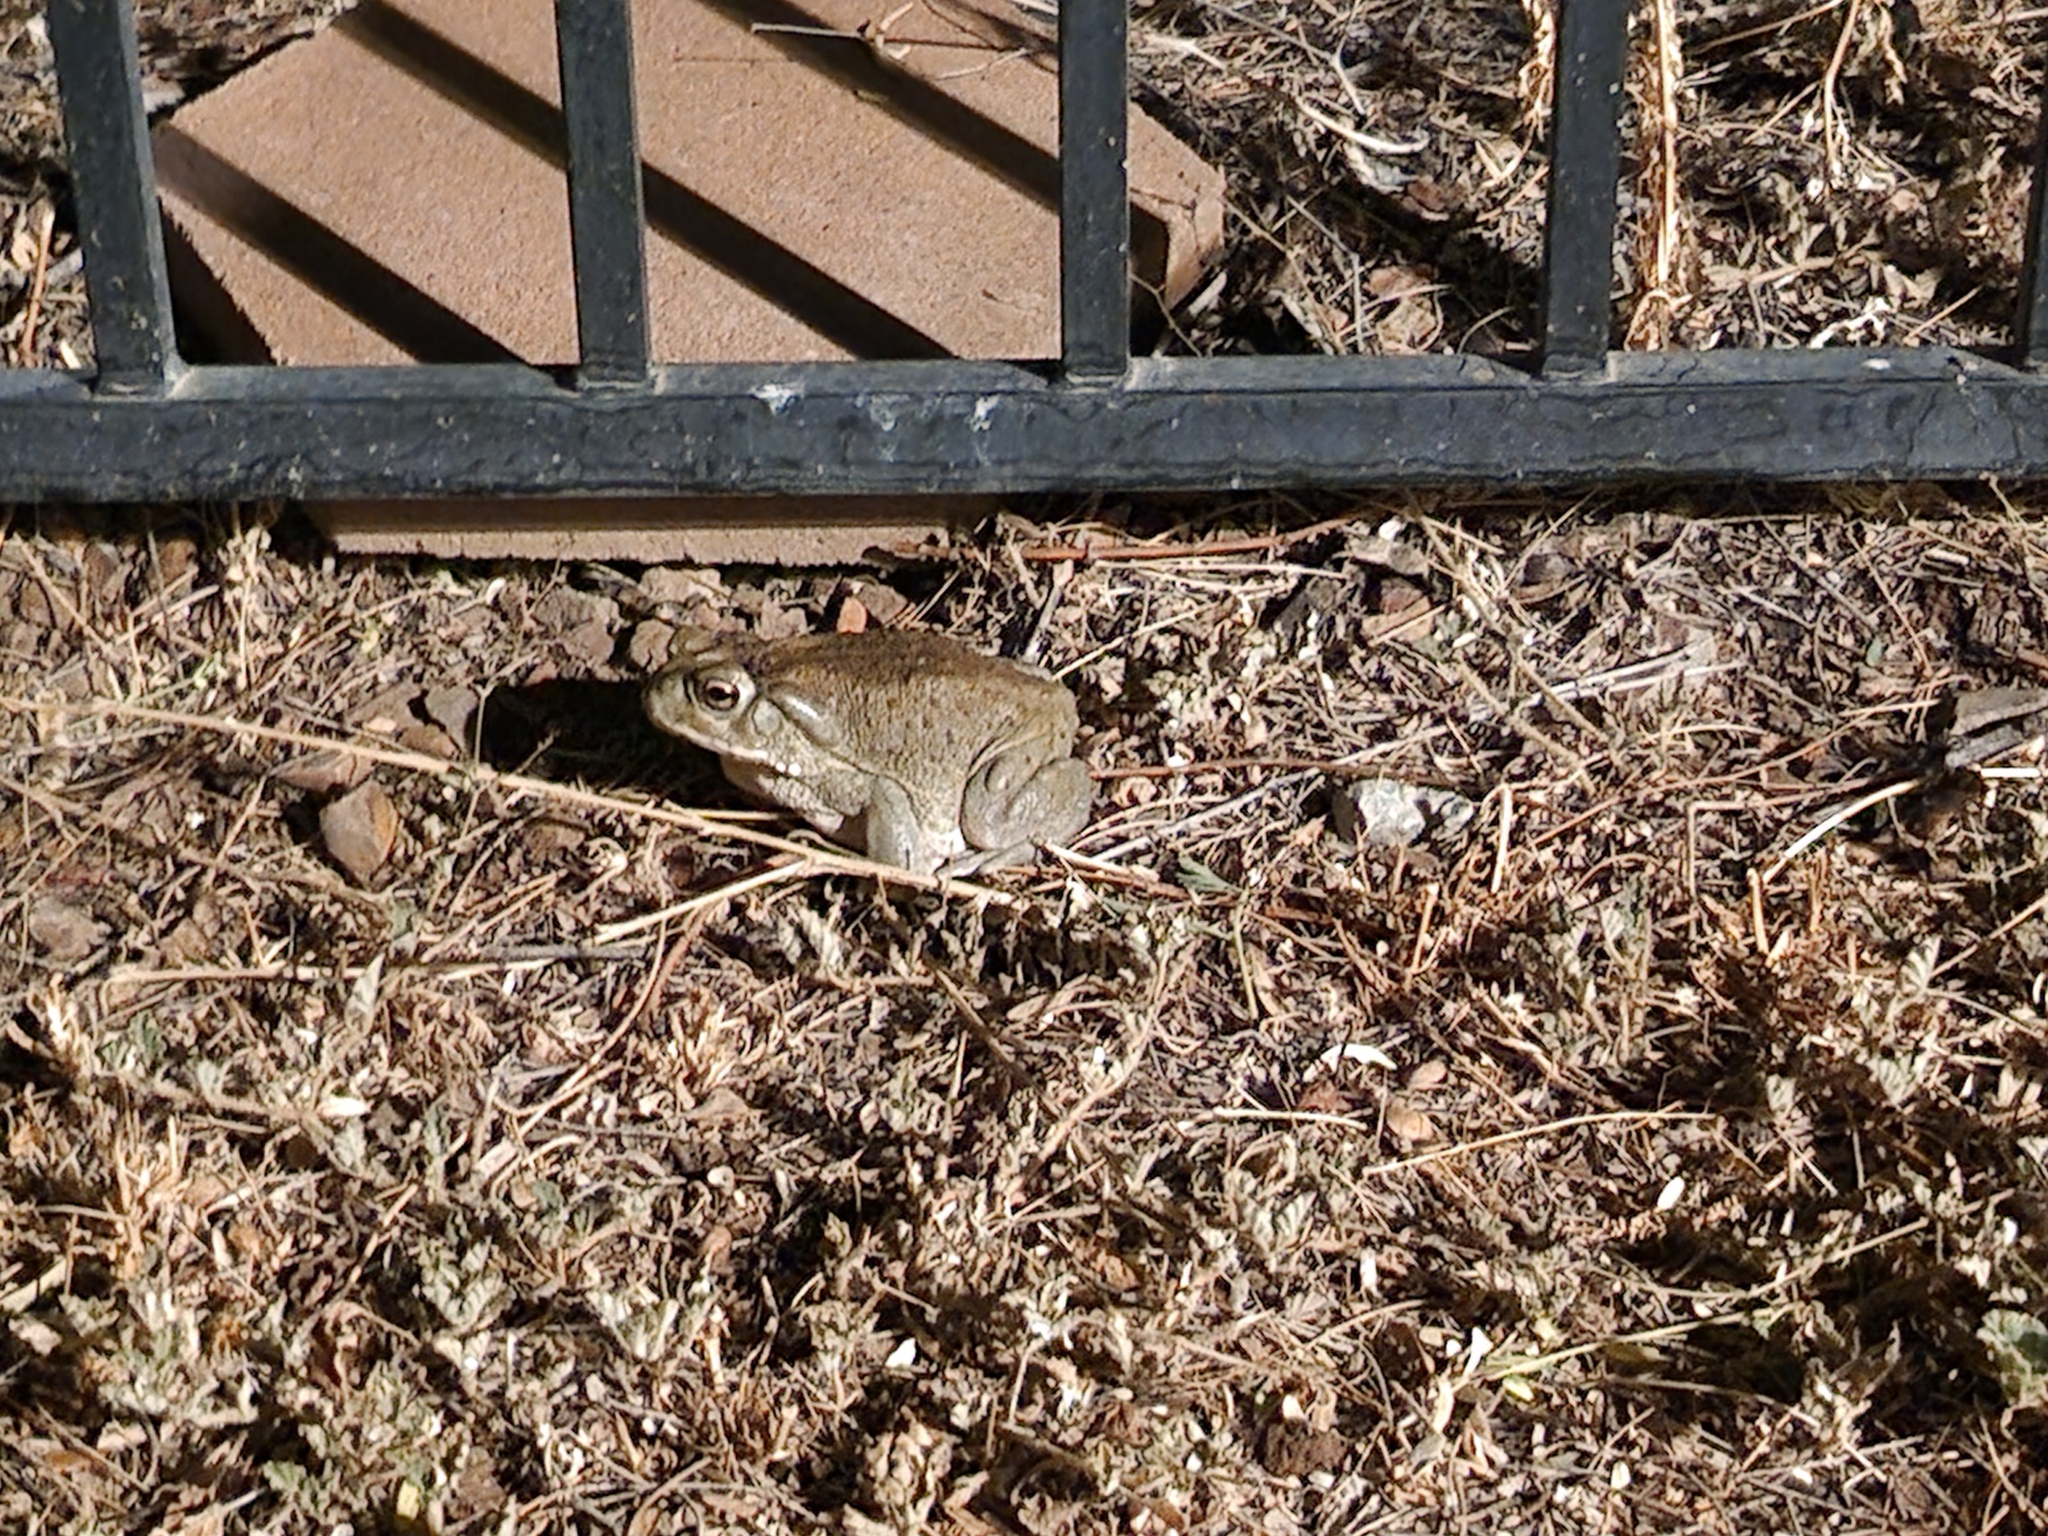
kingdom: Animalia
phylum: Chordata
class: Amphibia
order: Anura
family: Bufonidae
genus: Incilius
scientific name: Incilius alvarius
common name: Sonoran desert toad
